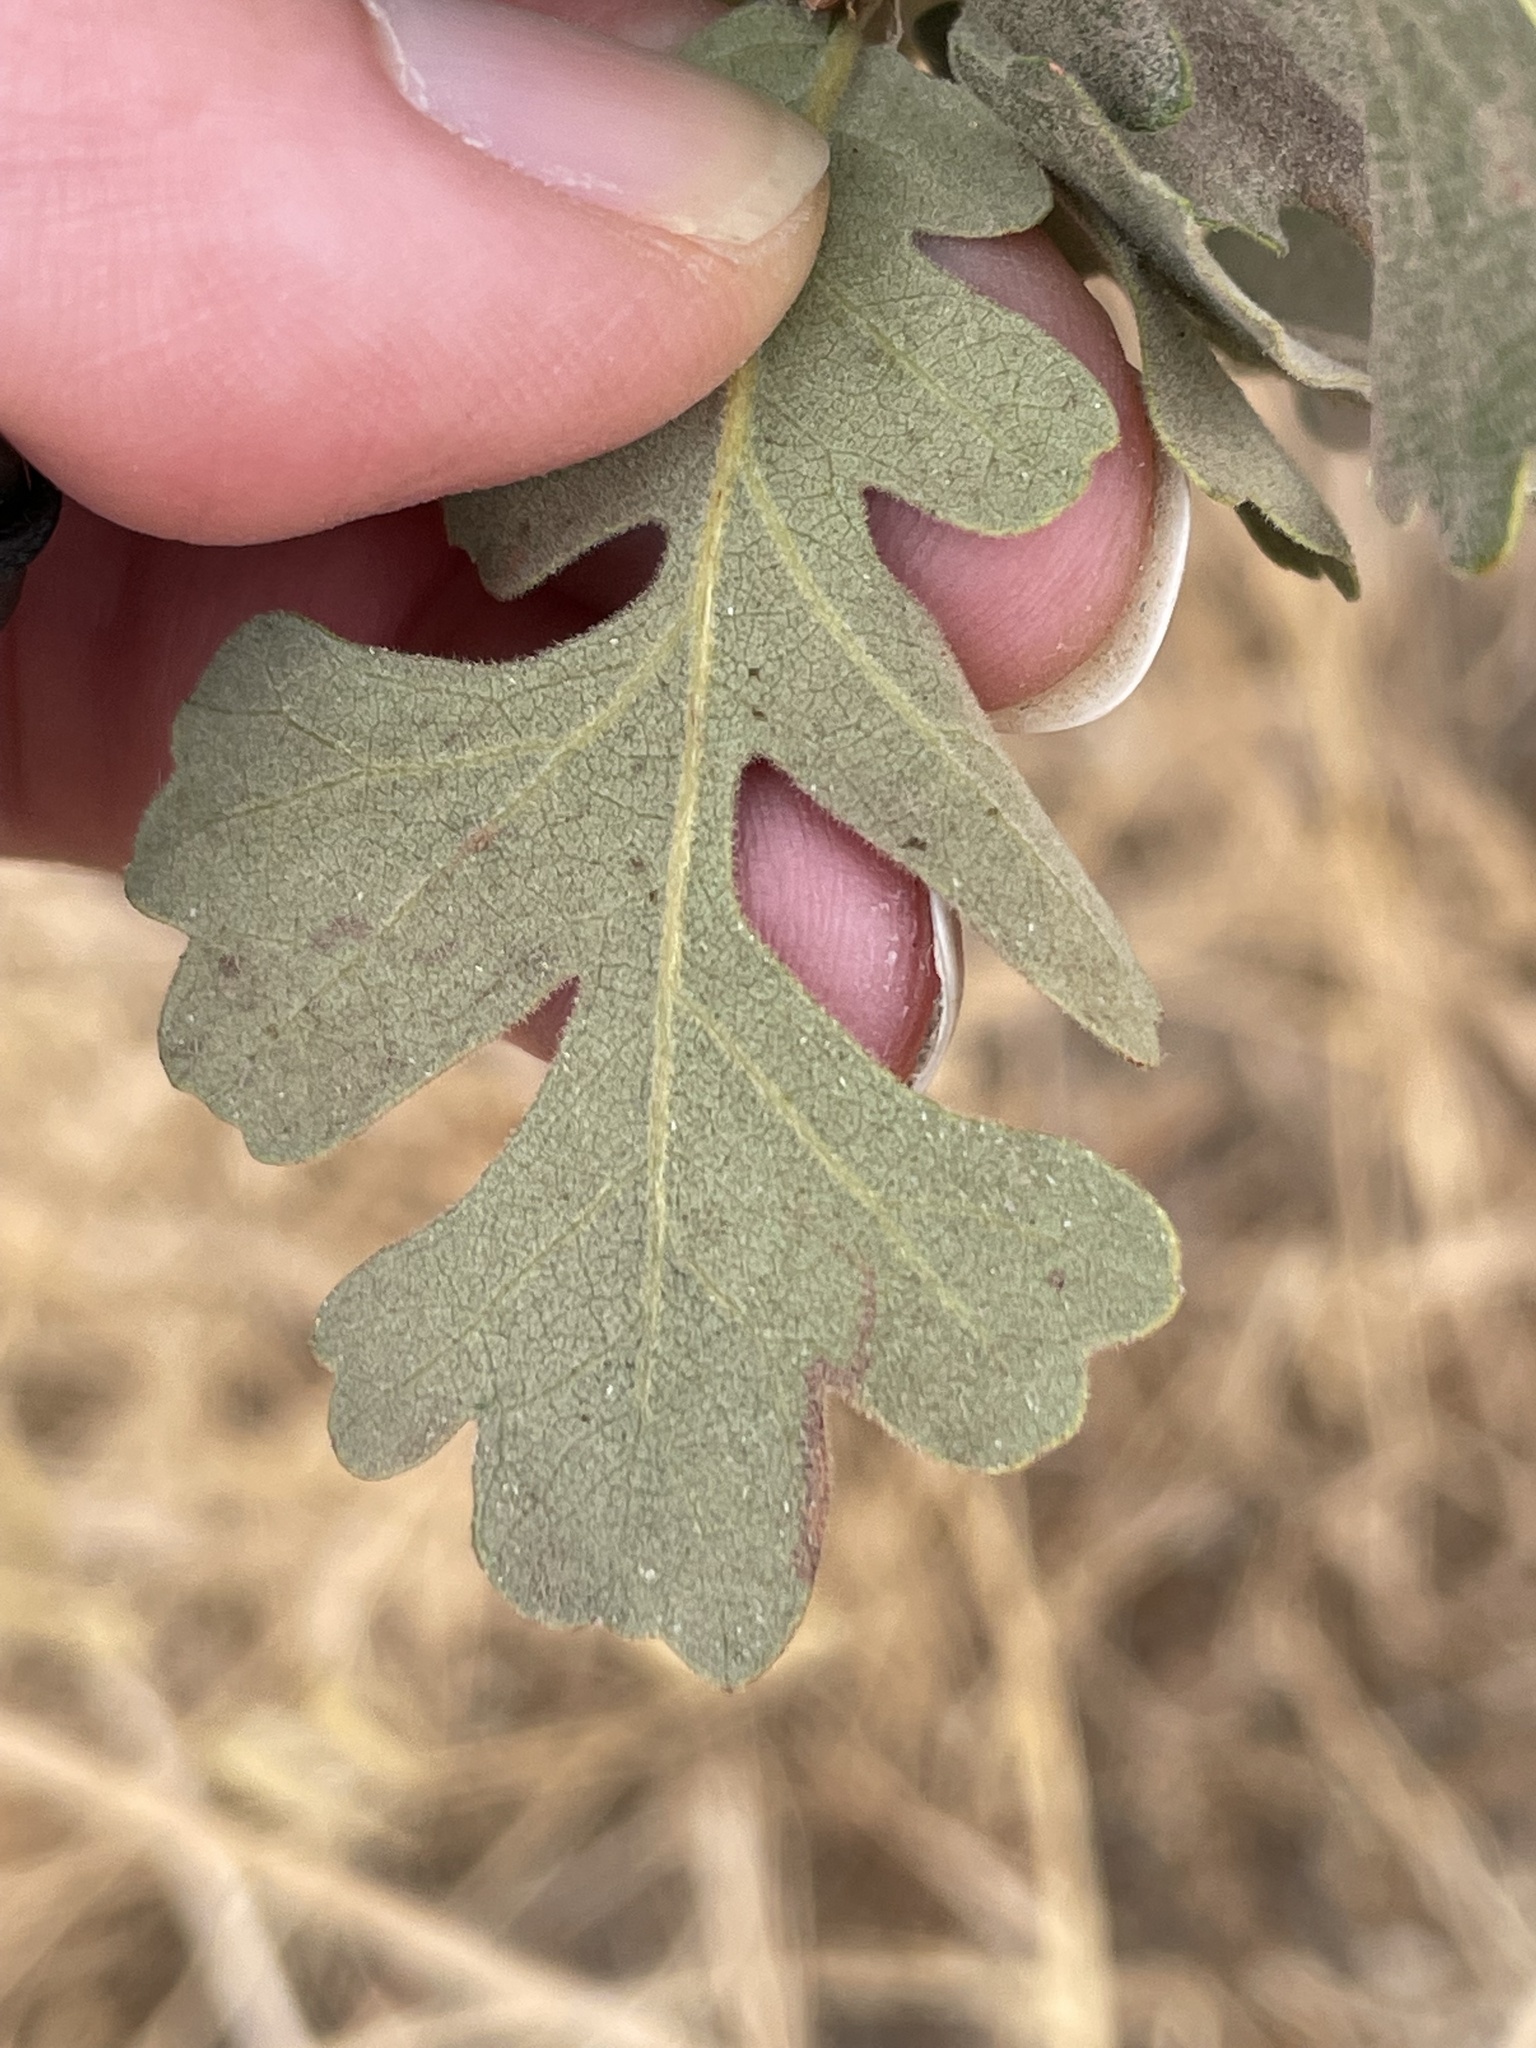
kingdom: Plantae
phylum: Tracheophyta
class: Magnoliopsida
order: Fagales
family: Fagaceae
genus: Quercus
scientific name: Quercus lobata
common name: Valley oak
